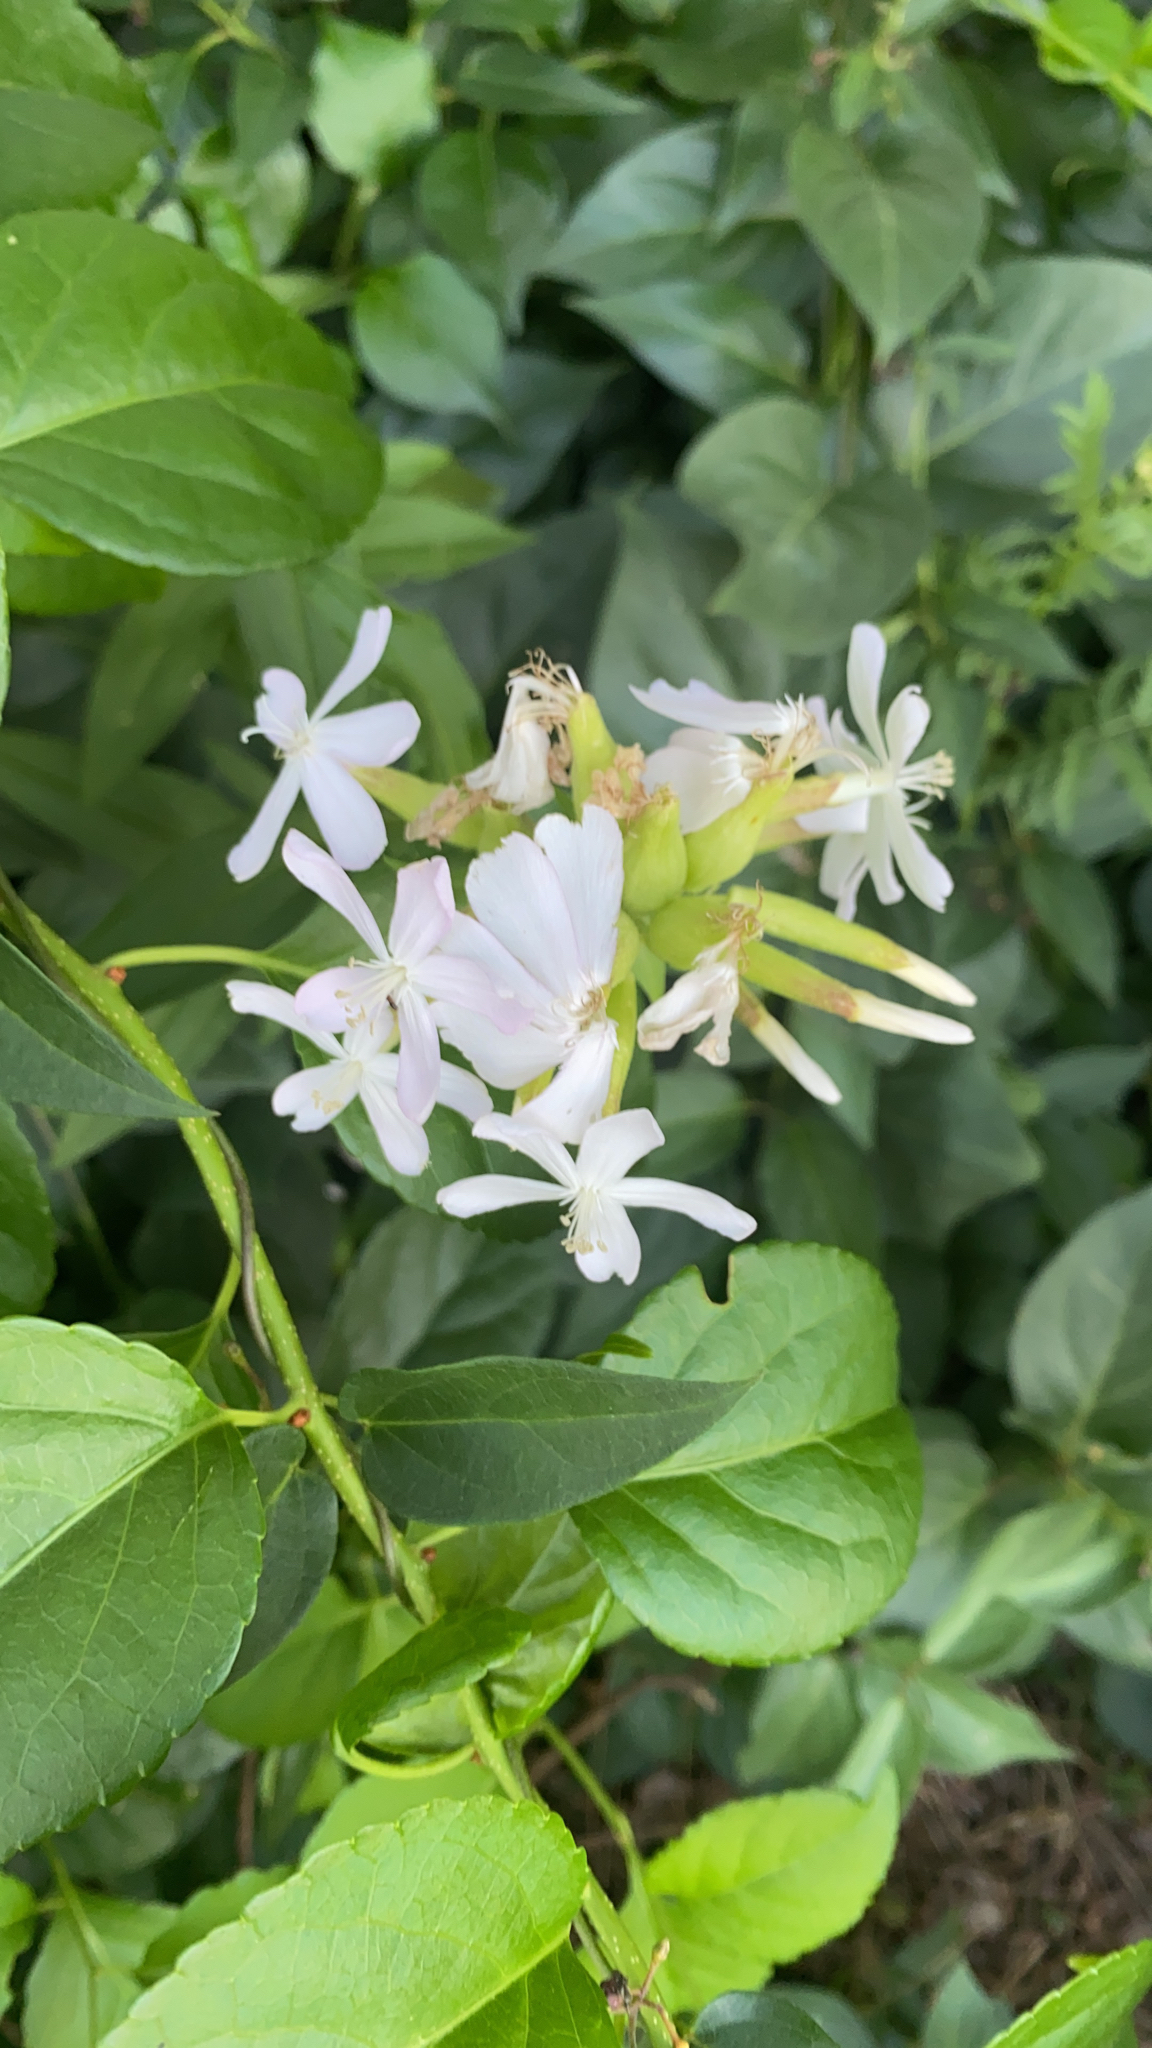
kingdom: Plantae
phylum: Tracheophyta
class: Magnoliopsida
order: Caryophyllales
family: Caryophyllaceae
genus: Saponaria
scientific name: Saponaria officinalis
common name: Soapwort
